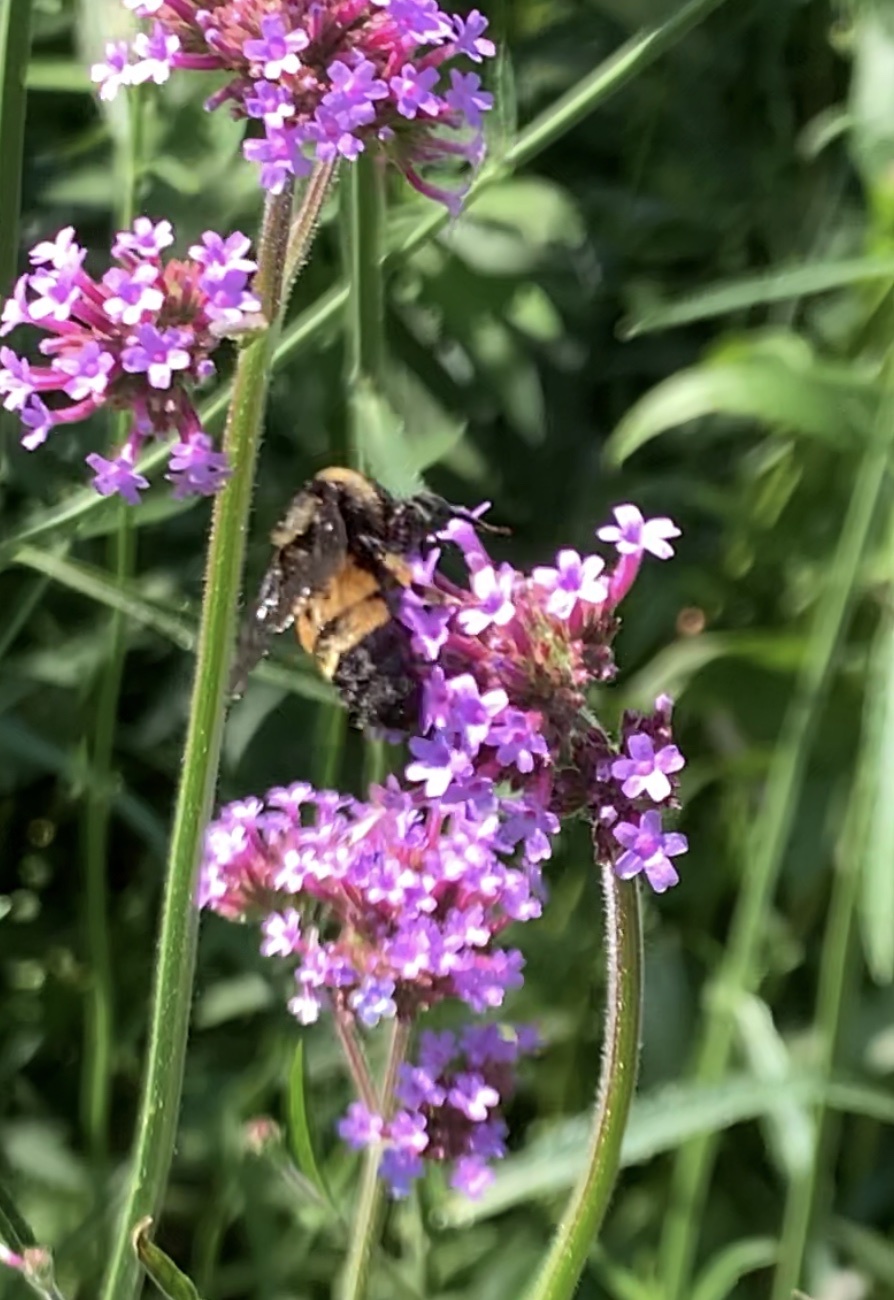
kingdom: Animalia
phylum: Arthropoda
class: Insecta
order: Hymenoptera
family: Apidae
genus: Bombus
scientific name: Bombus pensylvanicus
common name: Bumble bee
